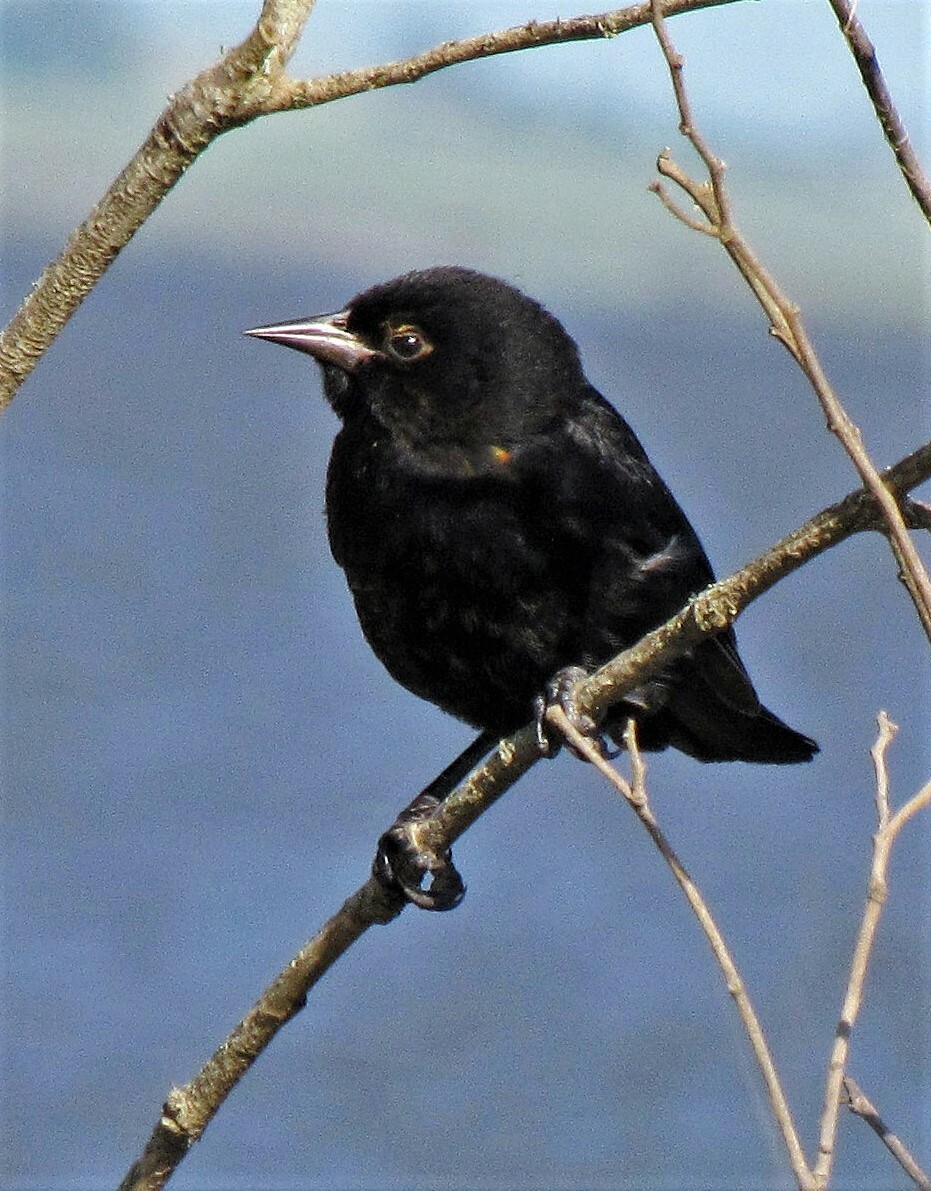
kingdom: Animalia
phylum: Chordata
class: Aves
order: Passeriformes
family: Icteridae
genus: Agelasticus
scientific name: Agelasticus cyanopus
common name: Unicolored blackbird
